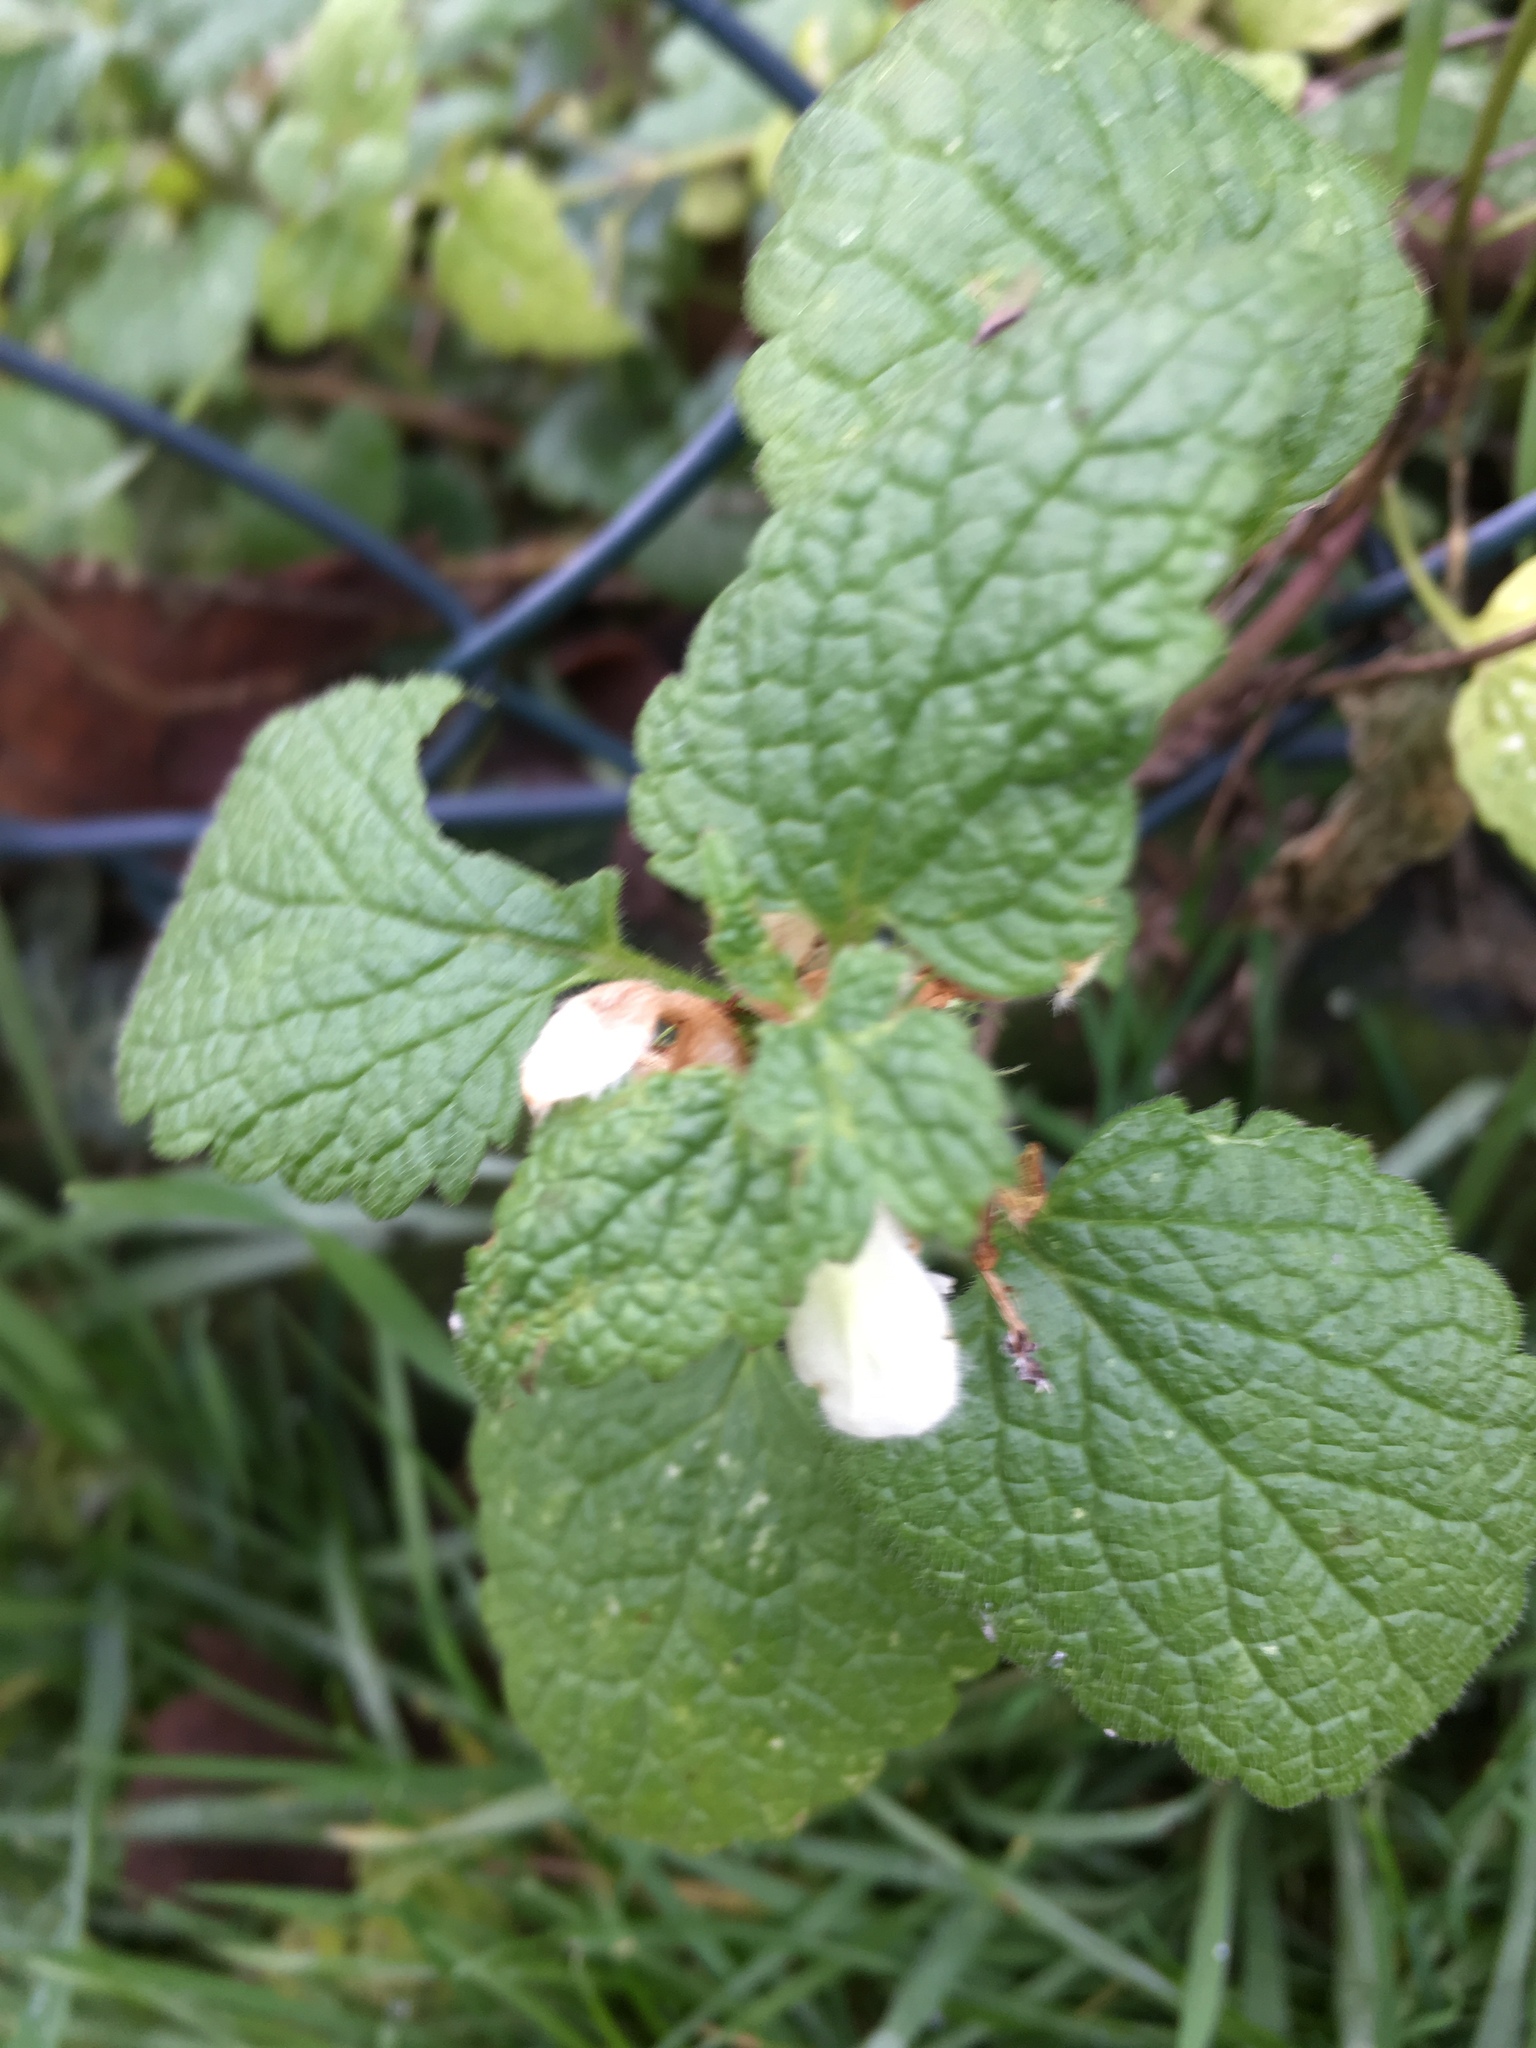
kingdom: Plantae
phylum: Tracheophyta
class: Magnoliopsida
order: Lamiales
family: Lamiaceae
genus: Lamium
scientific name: Lamium album
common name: White dead-nettle
